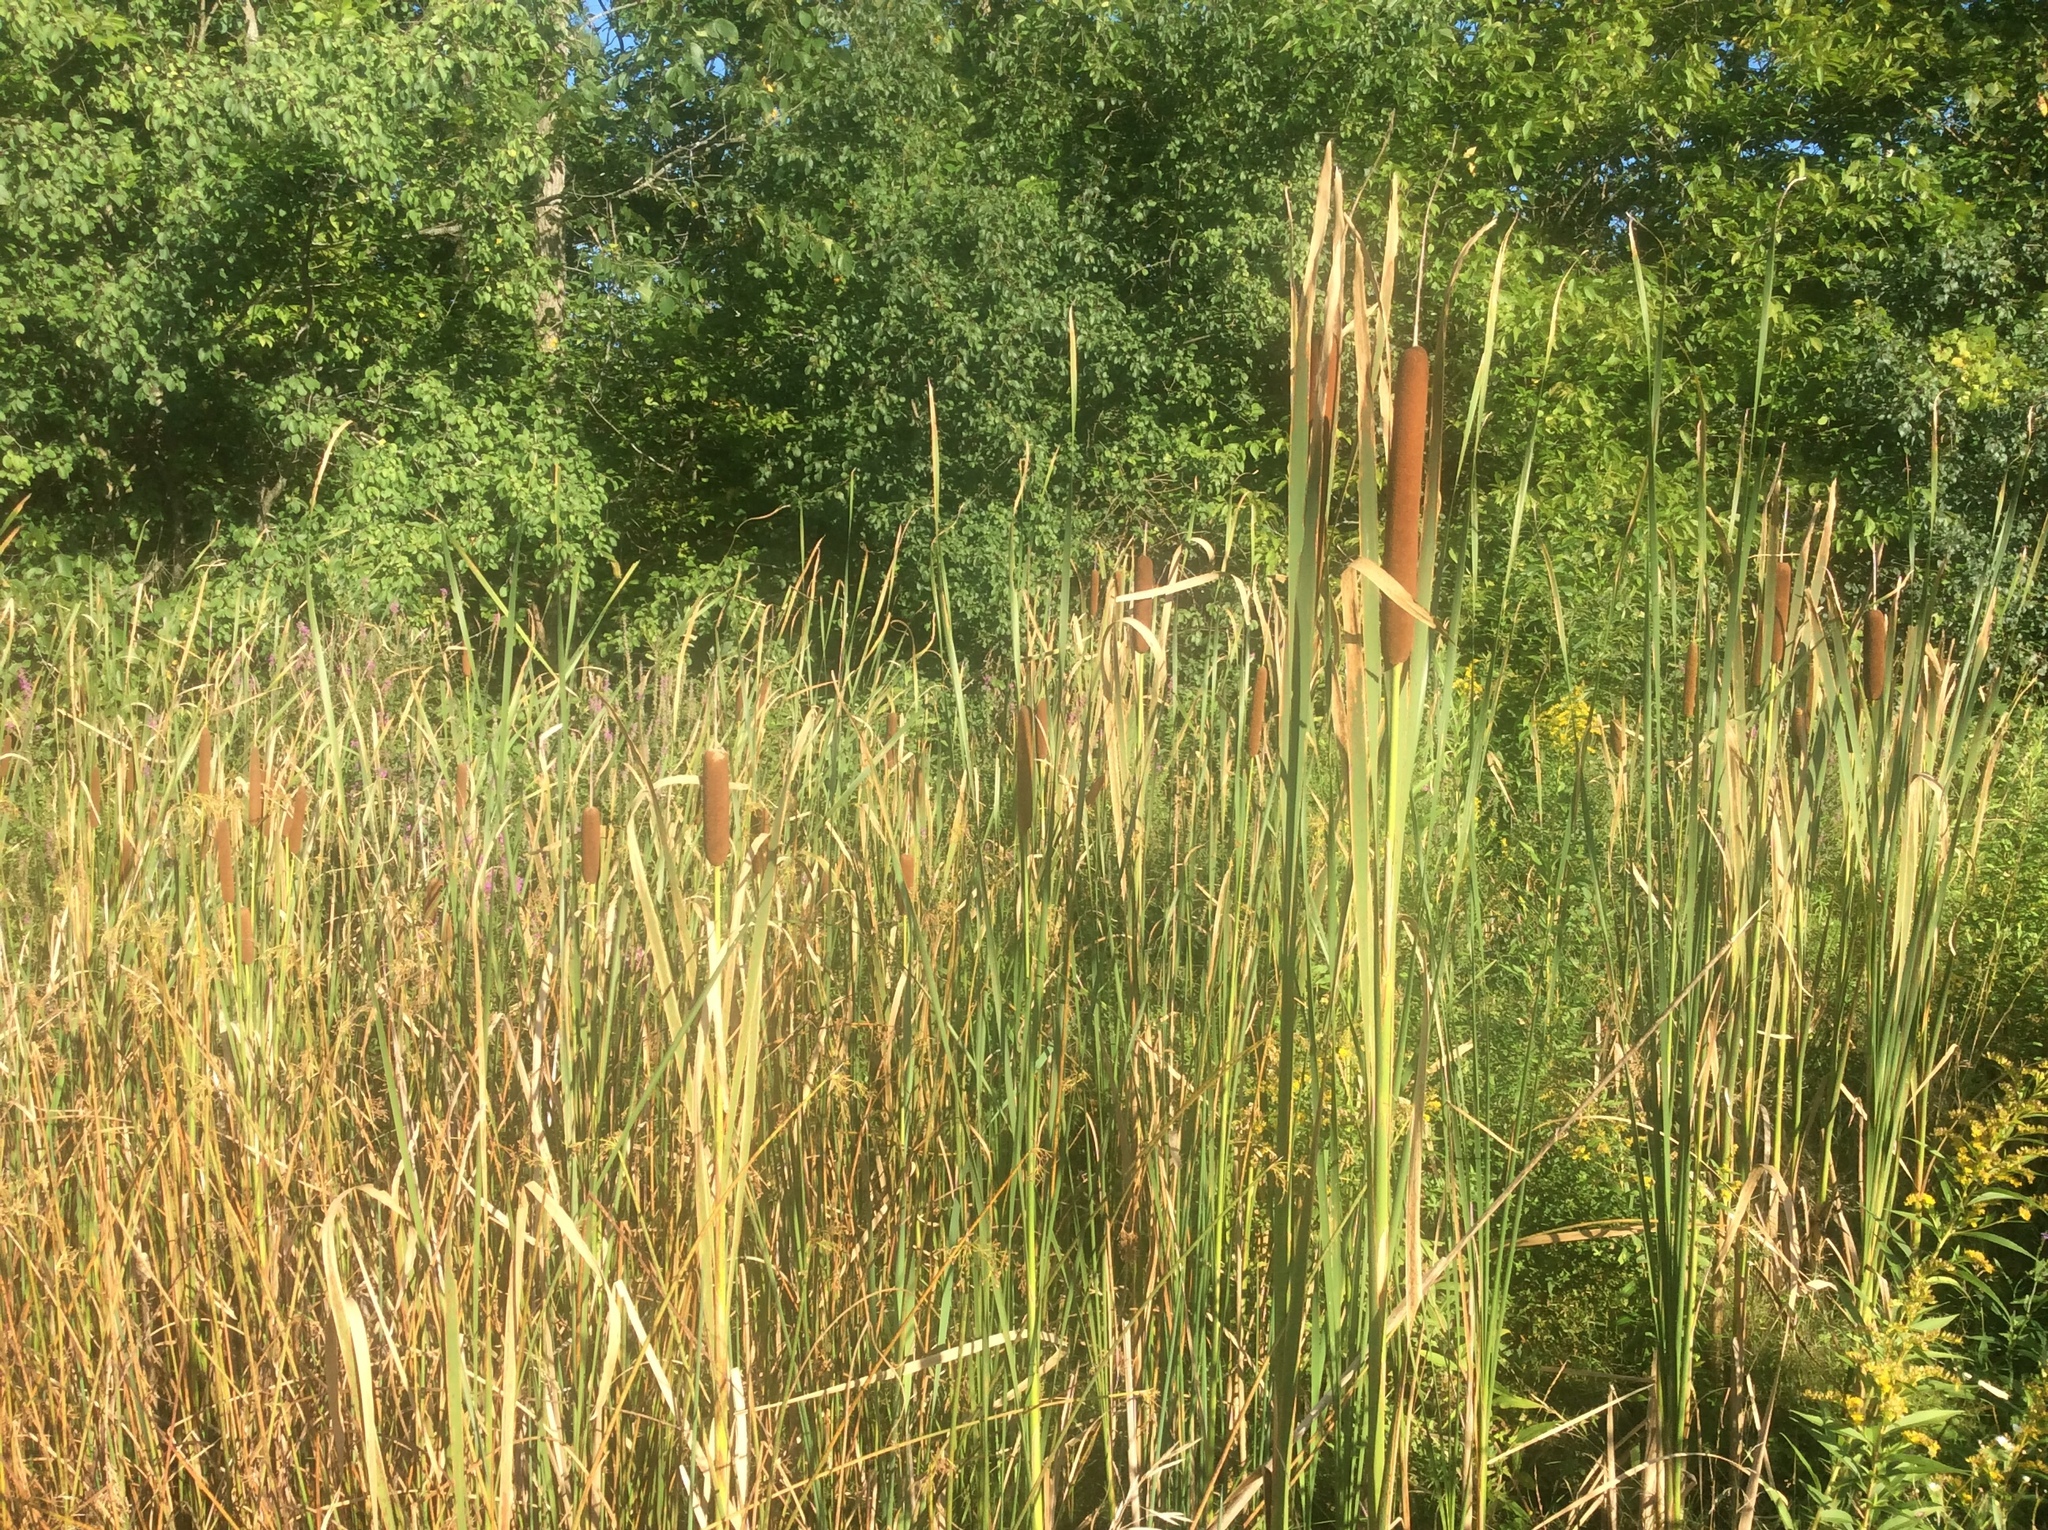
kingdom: Plantae
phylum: Tracheophyta
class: Liliopsida
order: Poales
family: Typhaceae
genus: Typha
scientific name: Typha
